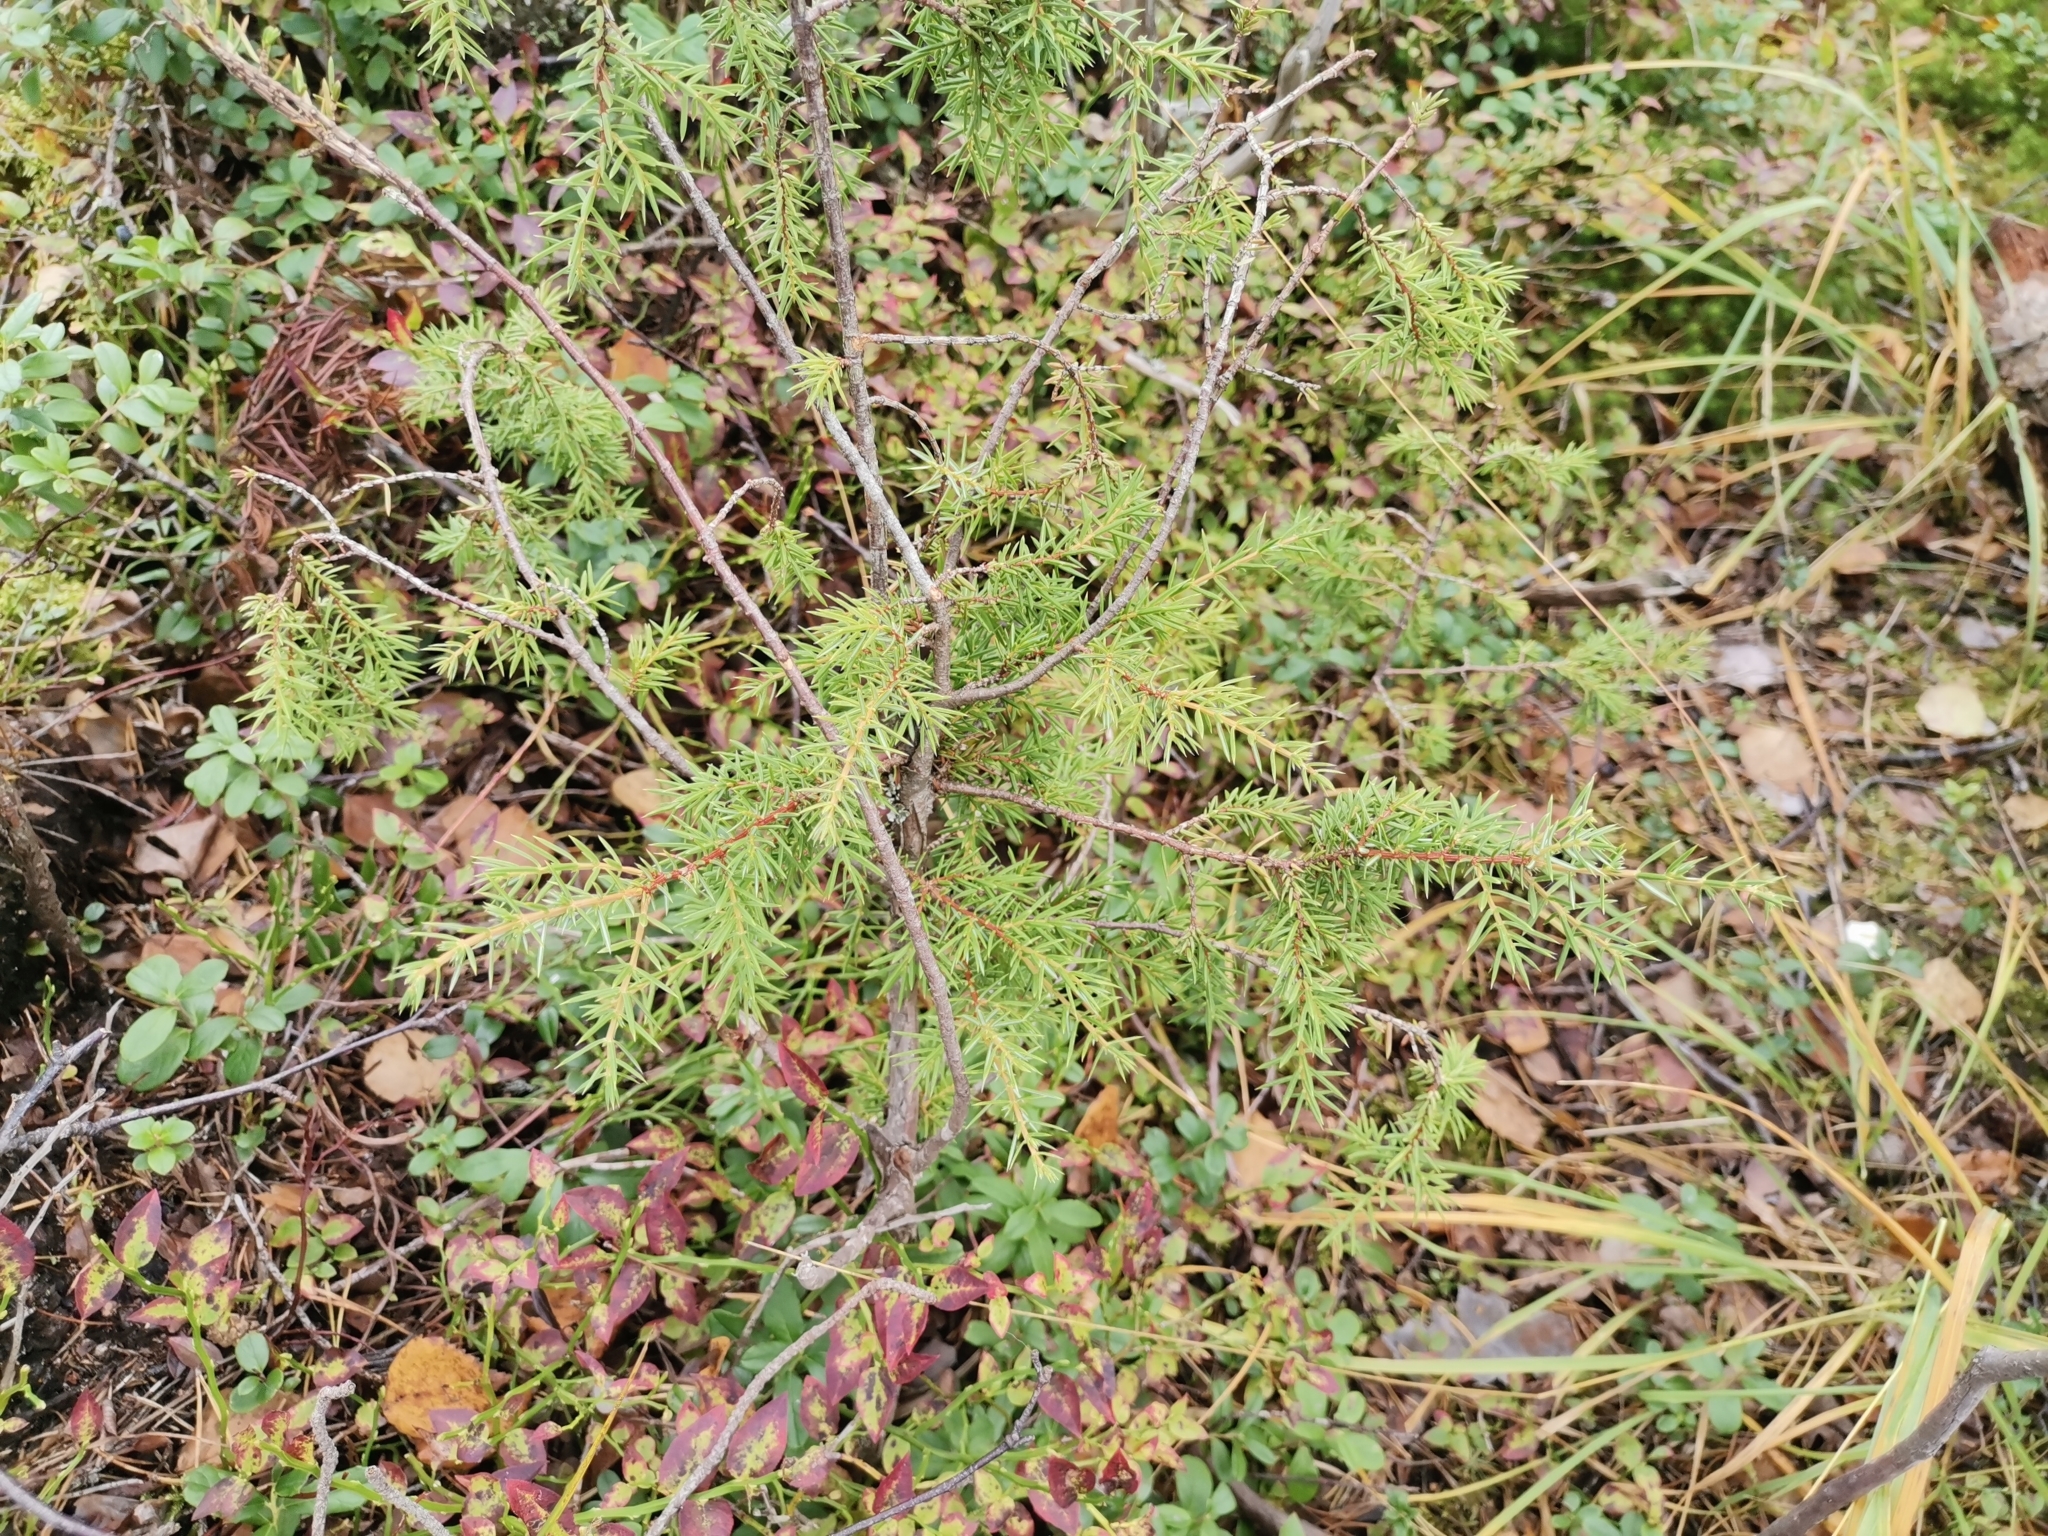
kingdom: Plantae
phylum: Tracheophyta
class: Pinopsida
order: Pinales
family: Cupressaceae
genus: Juniperus
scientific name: Juniperus communis
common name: Common juniper
